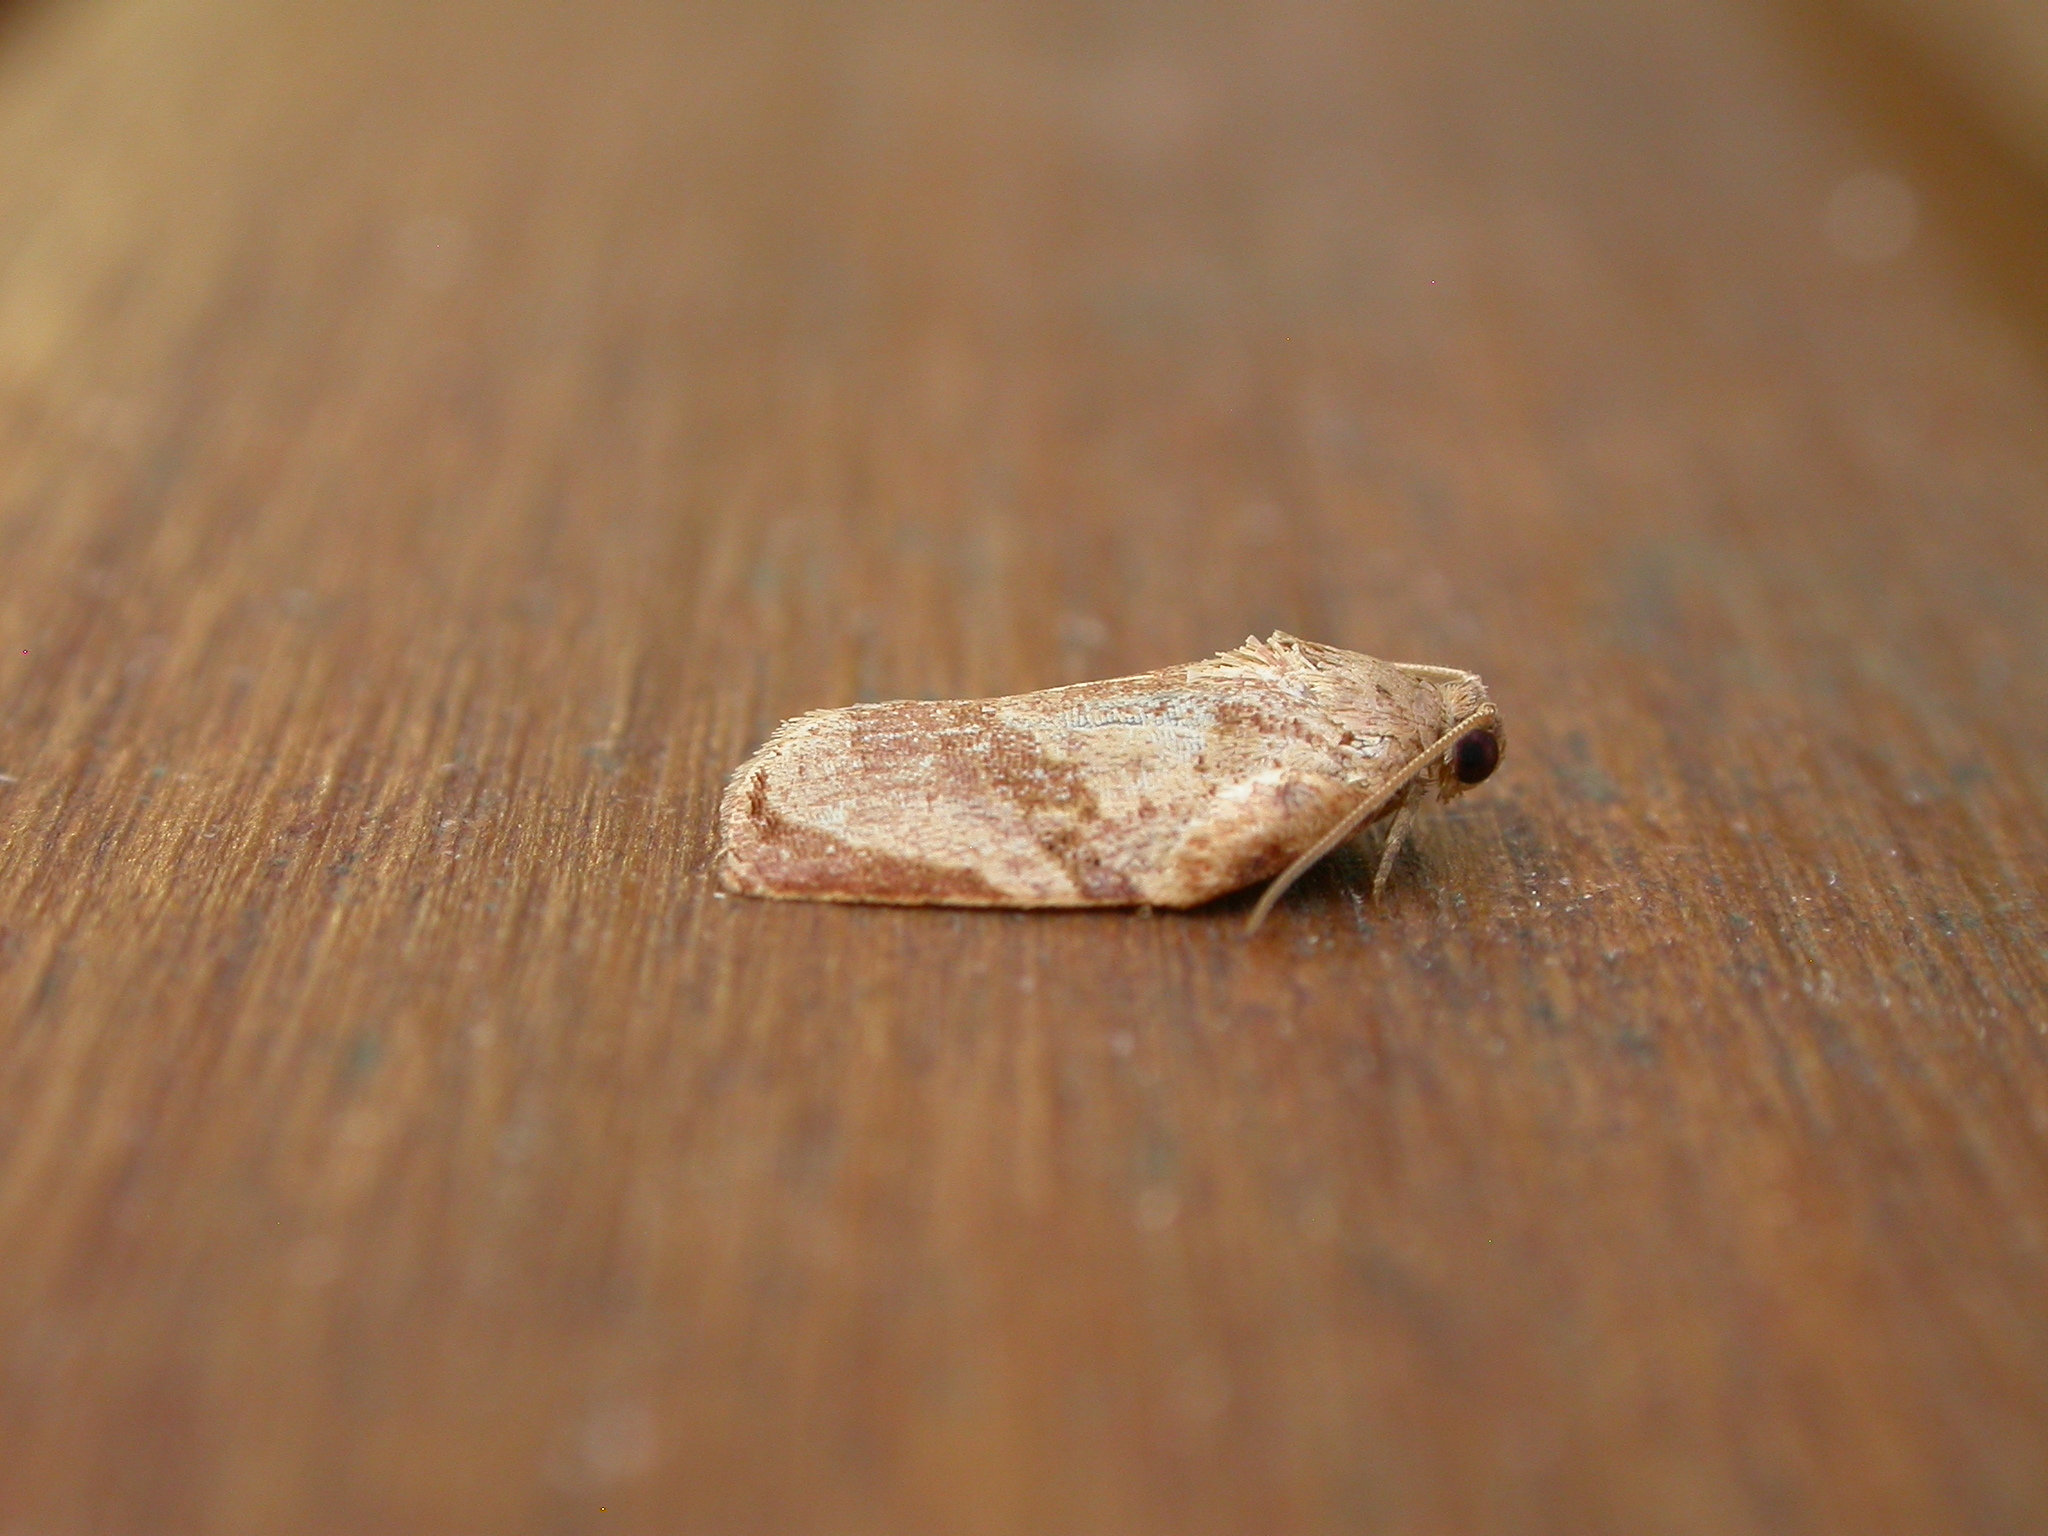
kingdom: Animalia
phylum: Arthropoda
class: Insecta
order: Lepidoptera
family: Tortricidae
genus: Homona
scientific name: Homona spargotis
